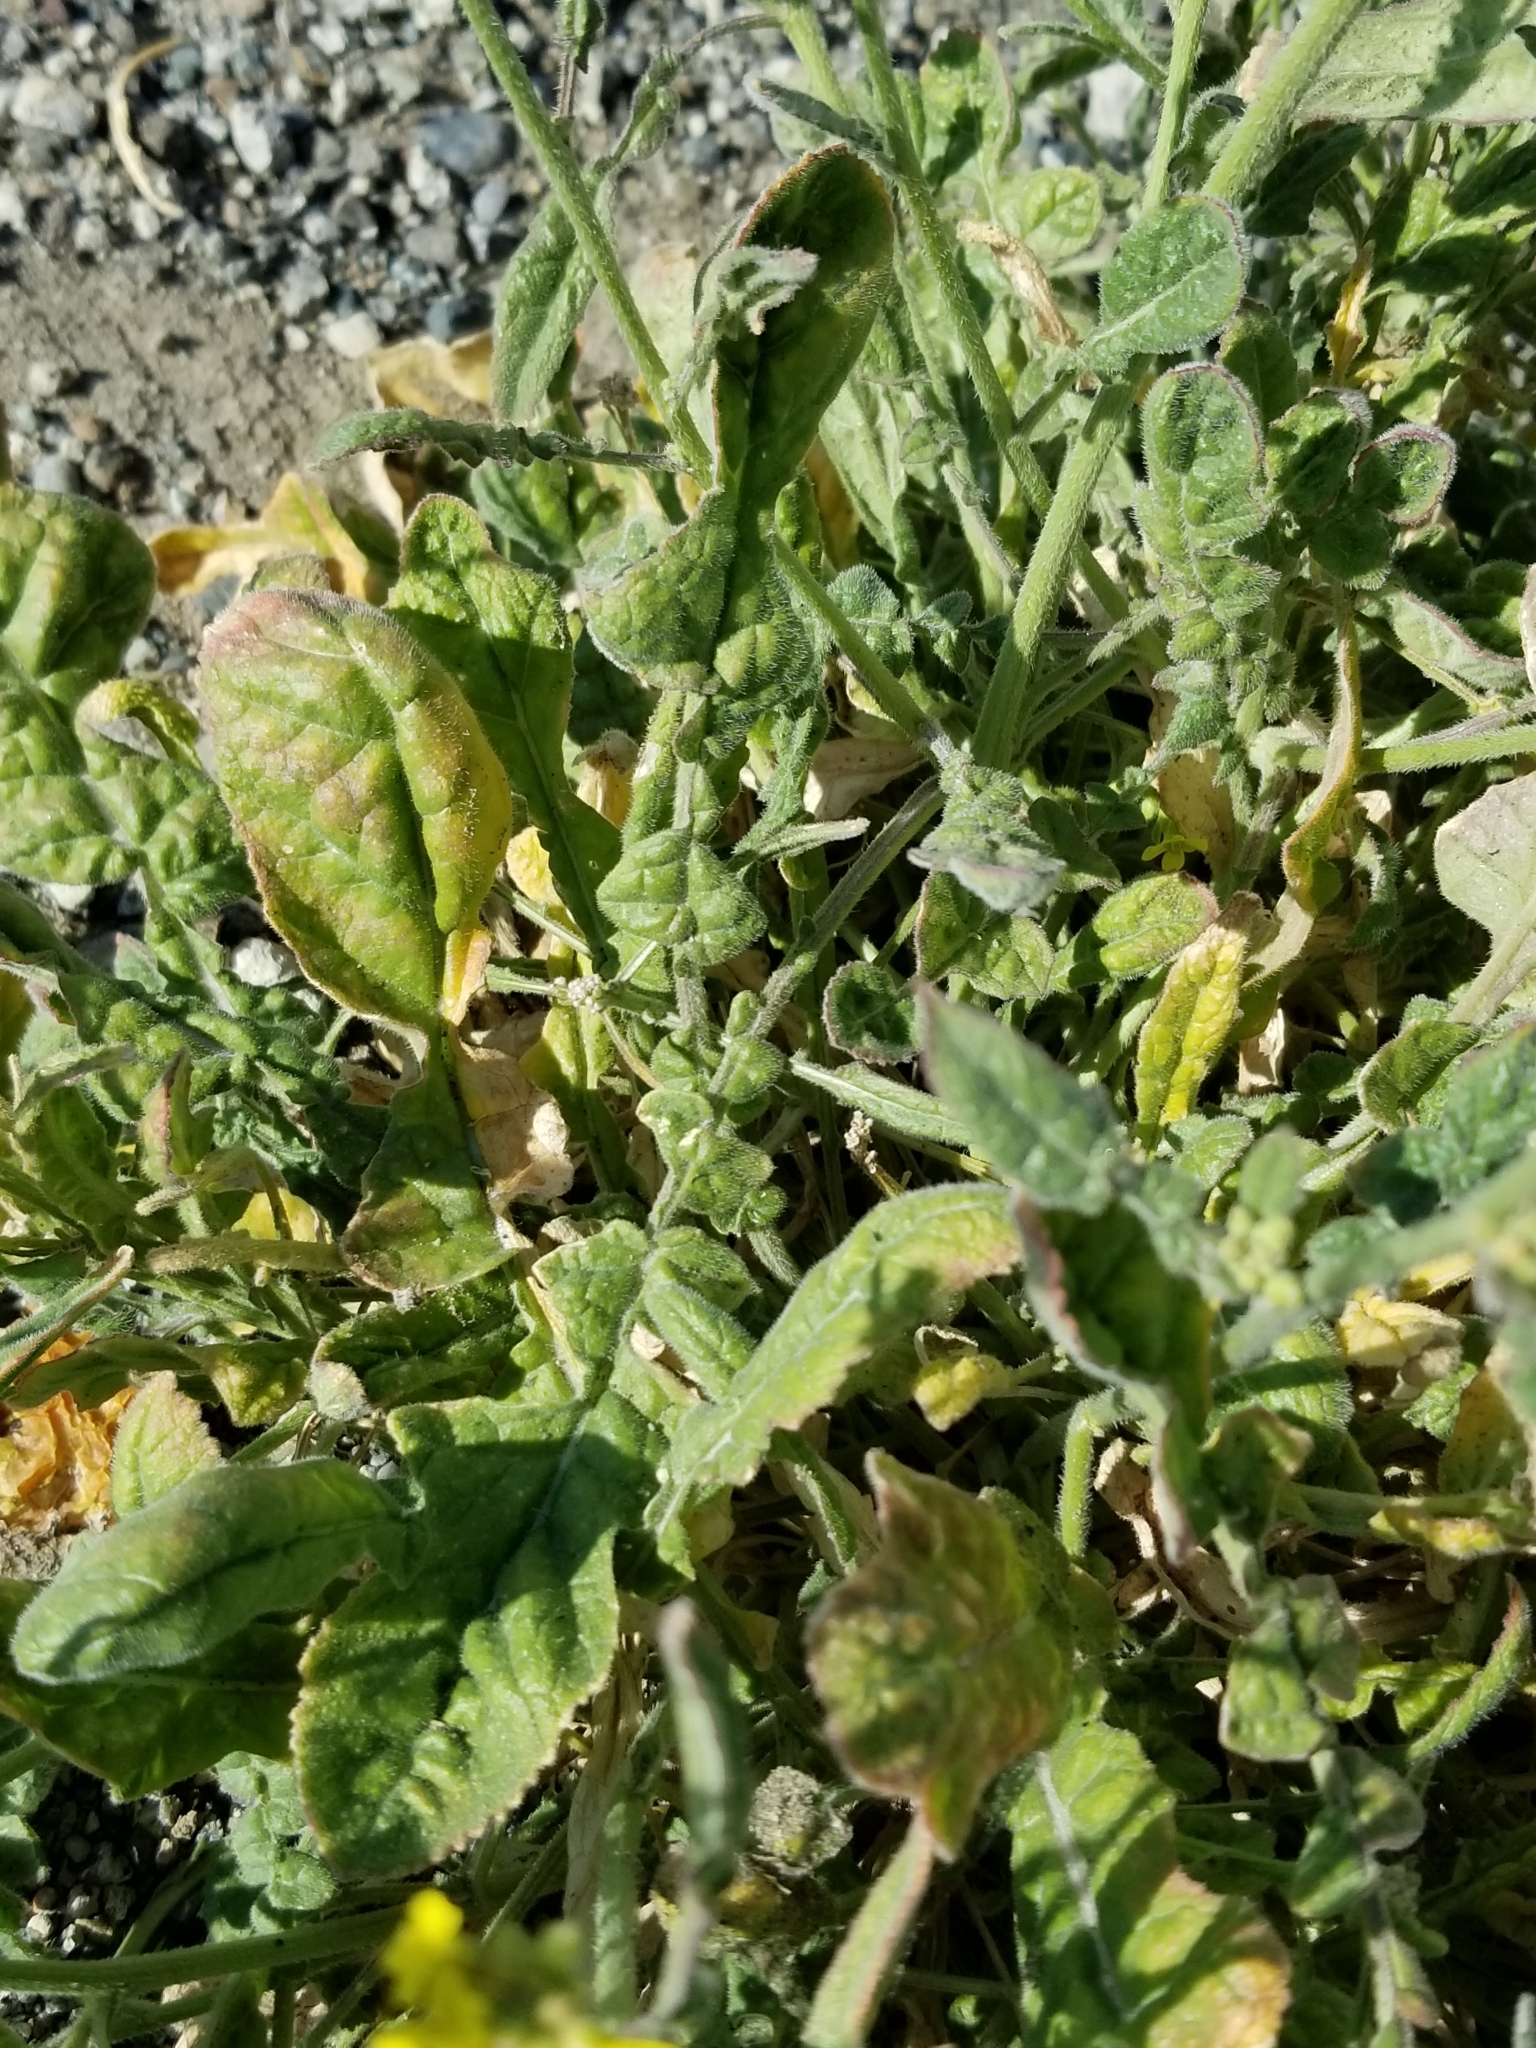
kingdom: Plantae
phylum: Tracheophyta
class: Magnoliopsida
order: Brassicales
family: Brassicaceae
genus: Hirschfeldia
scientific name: Hirschfeldia incana
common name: Hoary mustard
